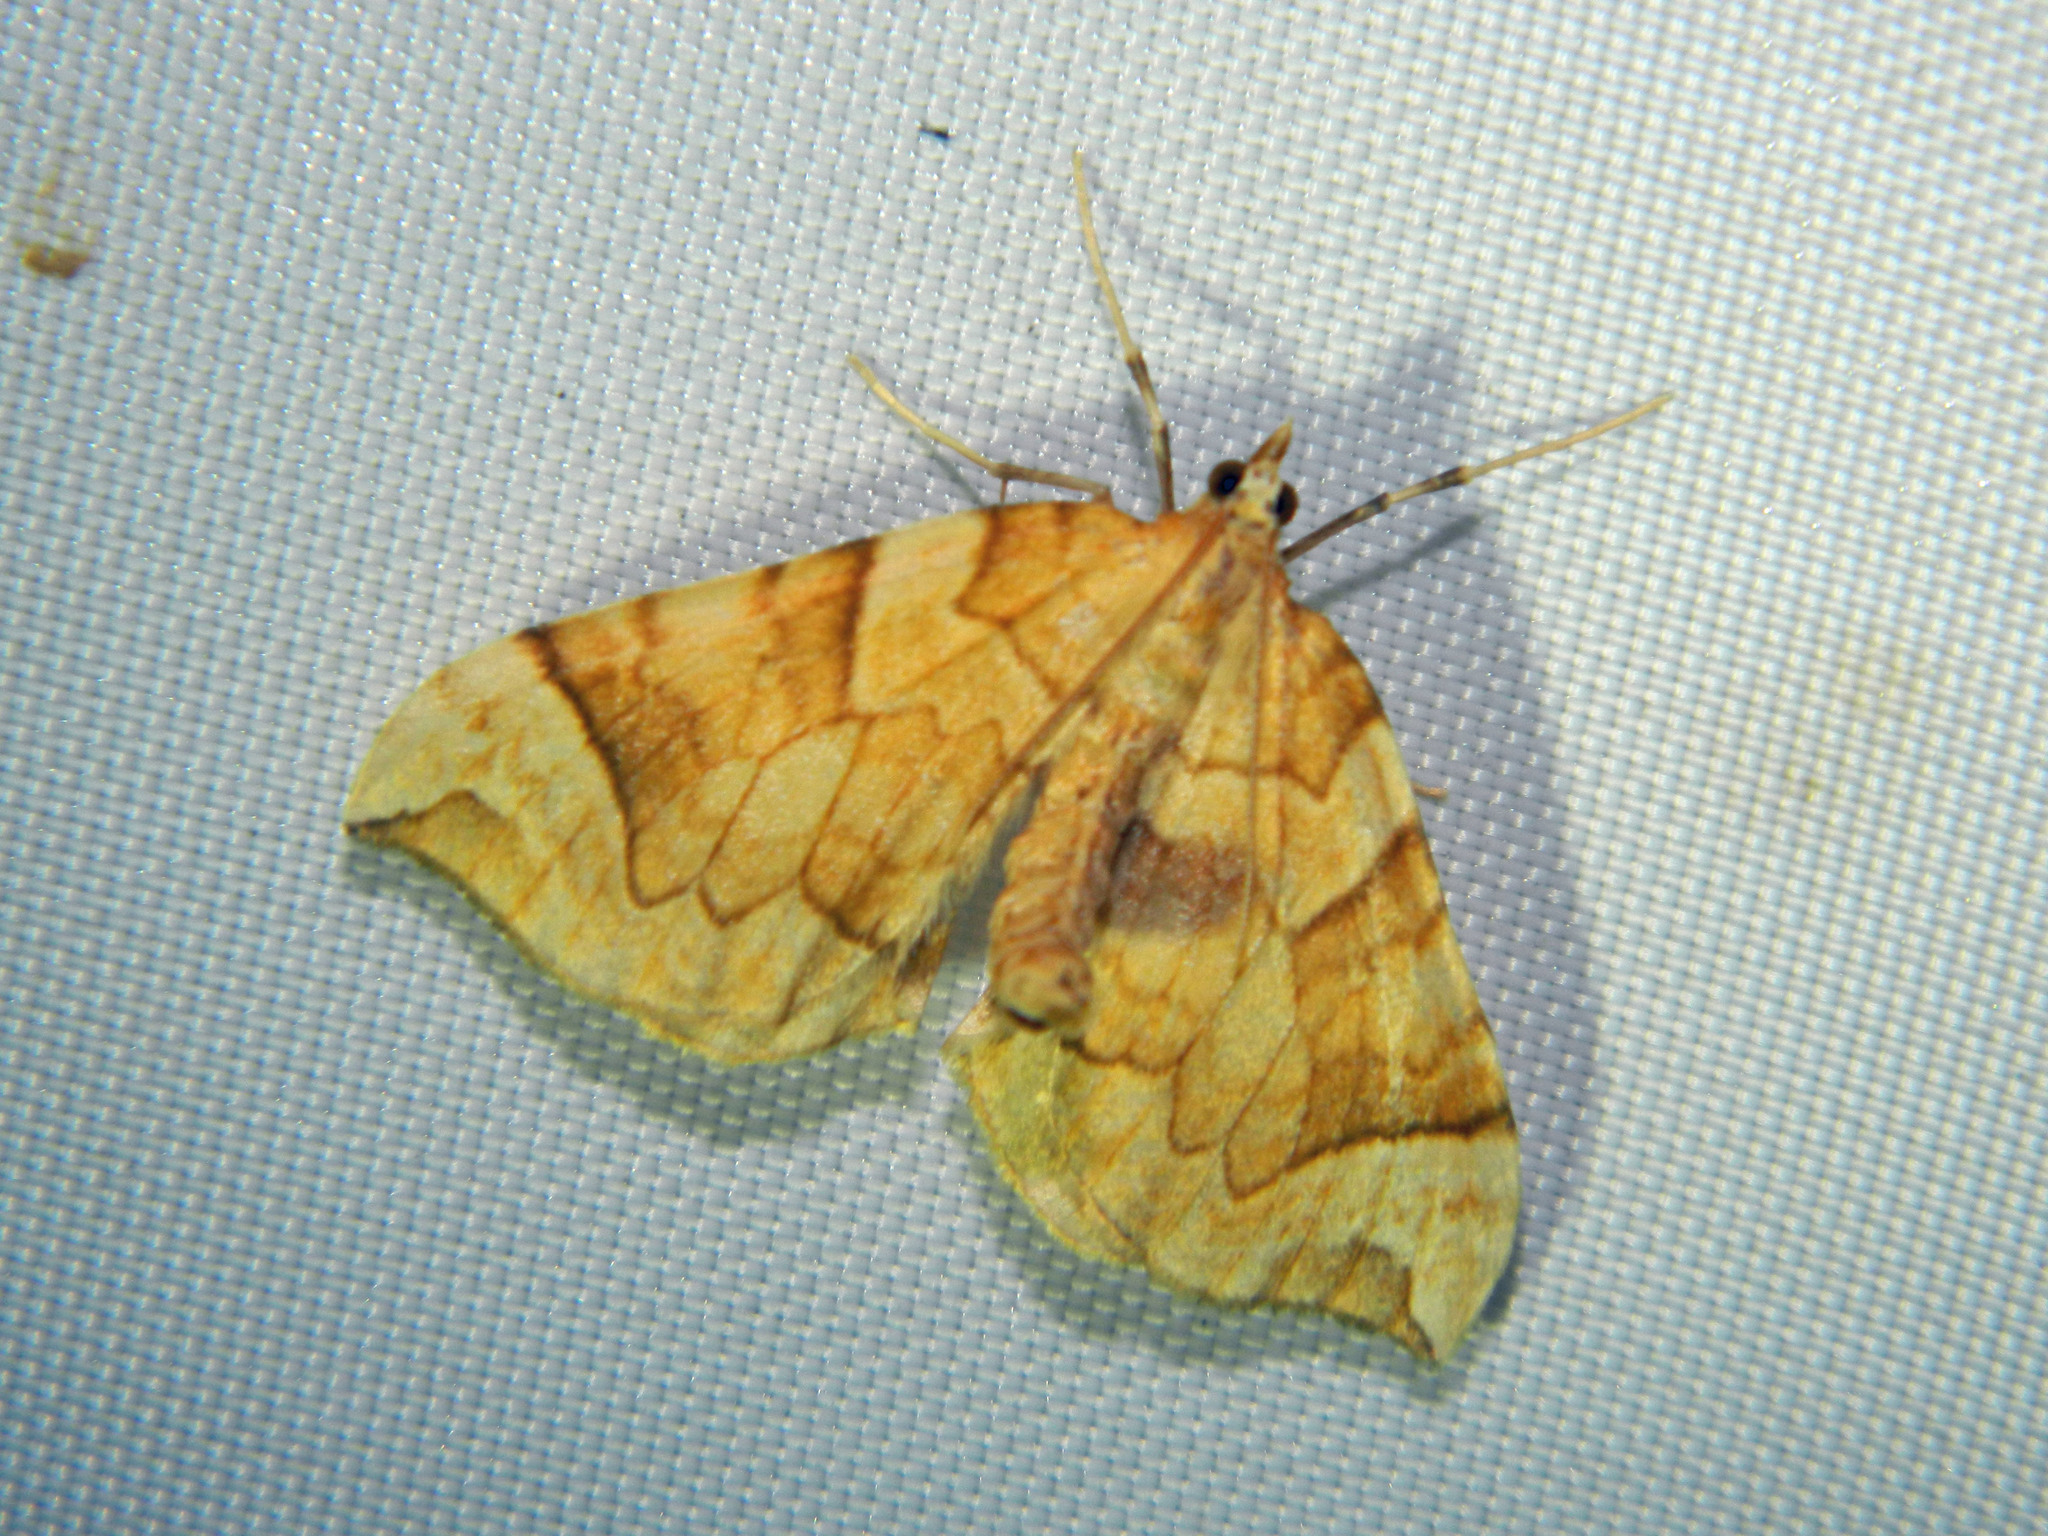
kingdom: Animalia
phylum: Arthropoda
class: Insecta
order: Lepidoptera
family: Geometridae
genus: Eulithis
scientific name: Eulithis propulsata
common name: Currant eulithis moth
